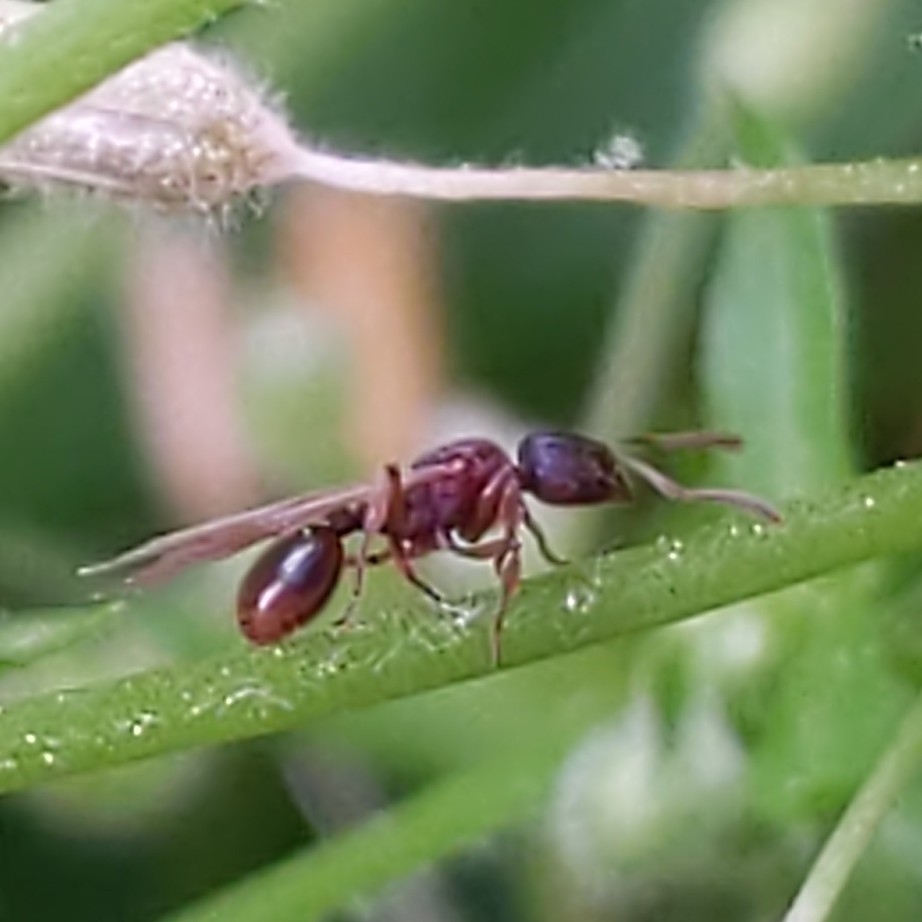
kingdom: Animalia
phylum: Arthropoda
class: Insecta
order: Hymenoptera
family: Formicidae
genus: Stenamma
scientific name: Stenamma
